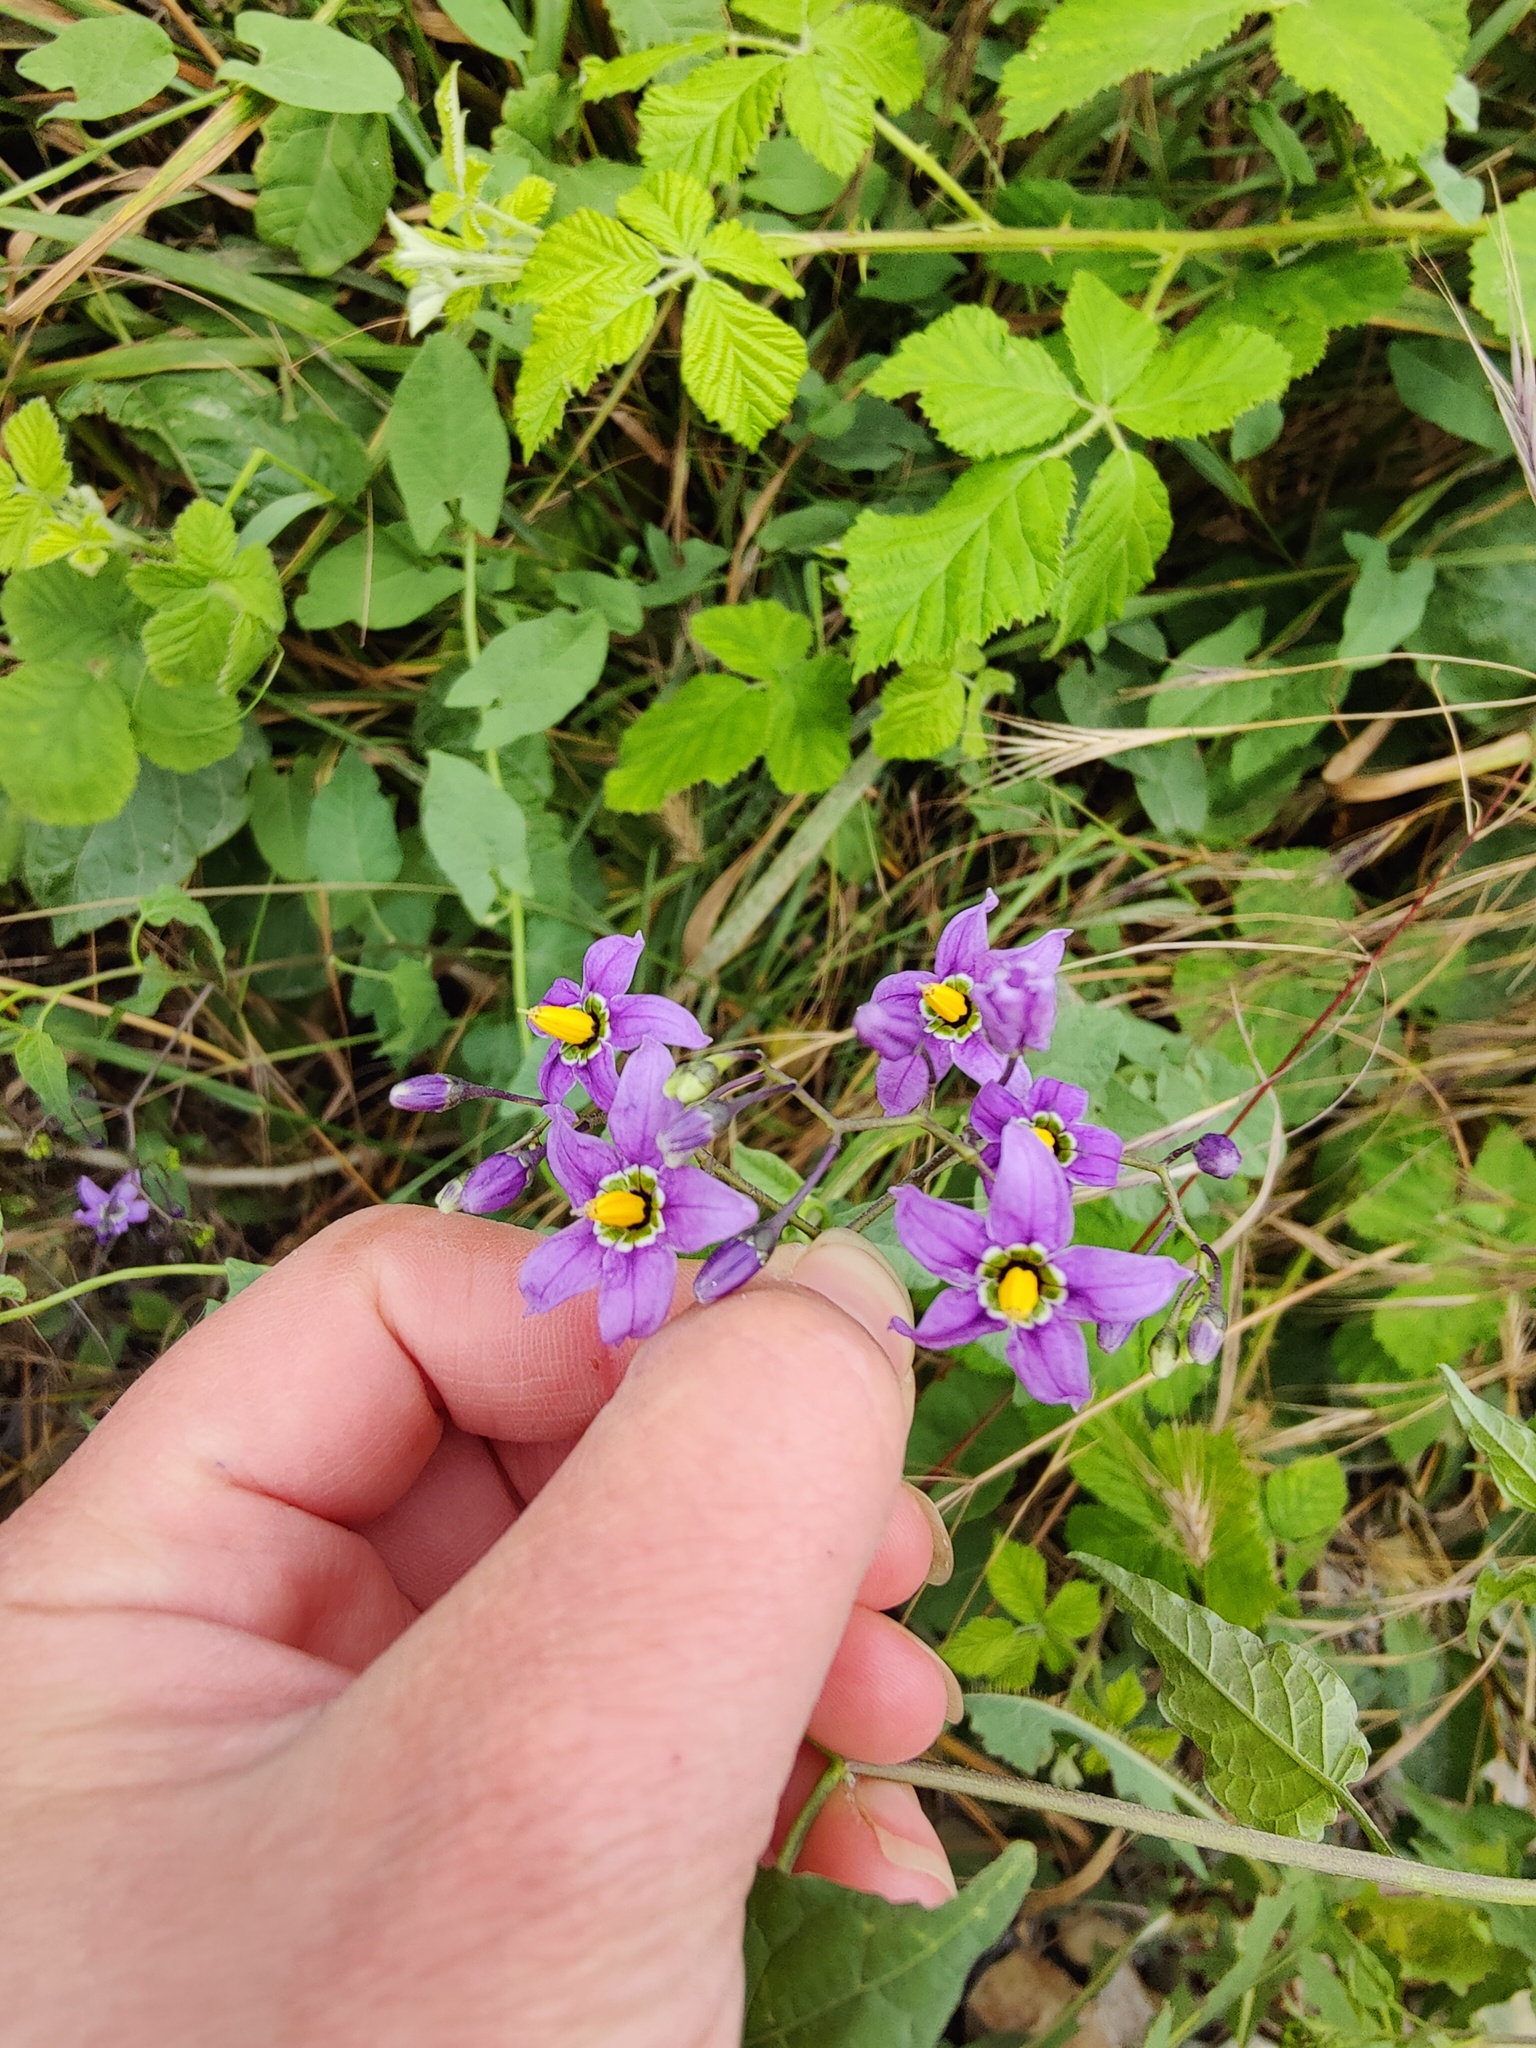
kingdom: Plantae
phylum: Tracheophyta
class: Magnoliopsida
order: Solanales
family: Solanaceae
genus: Solanum
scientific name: Solanum dulcamara
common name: Climbing nightshade
